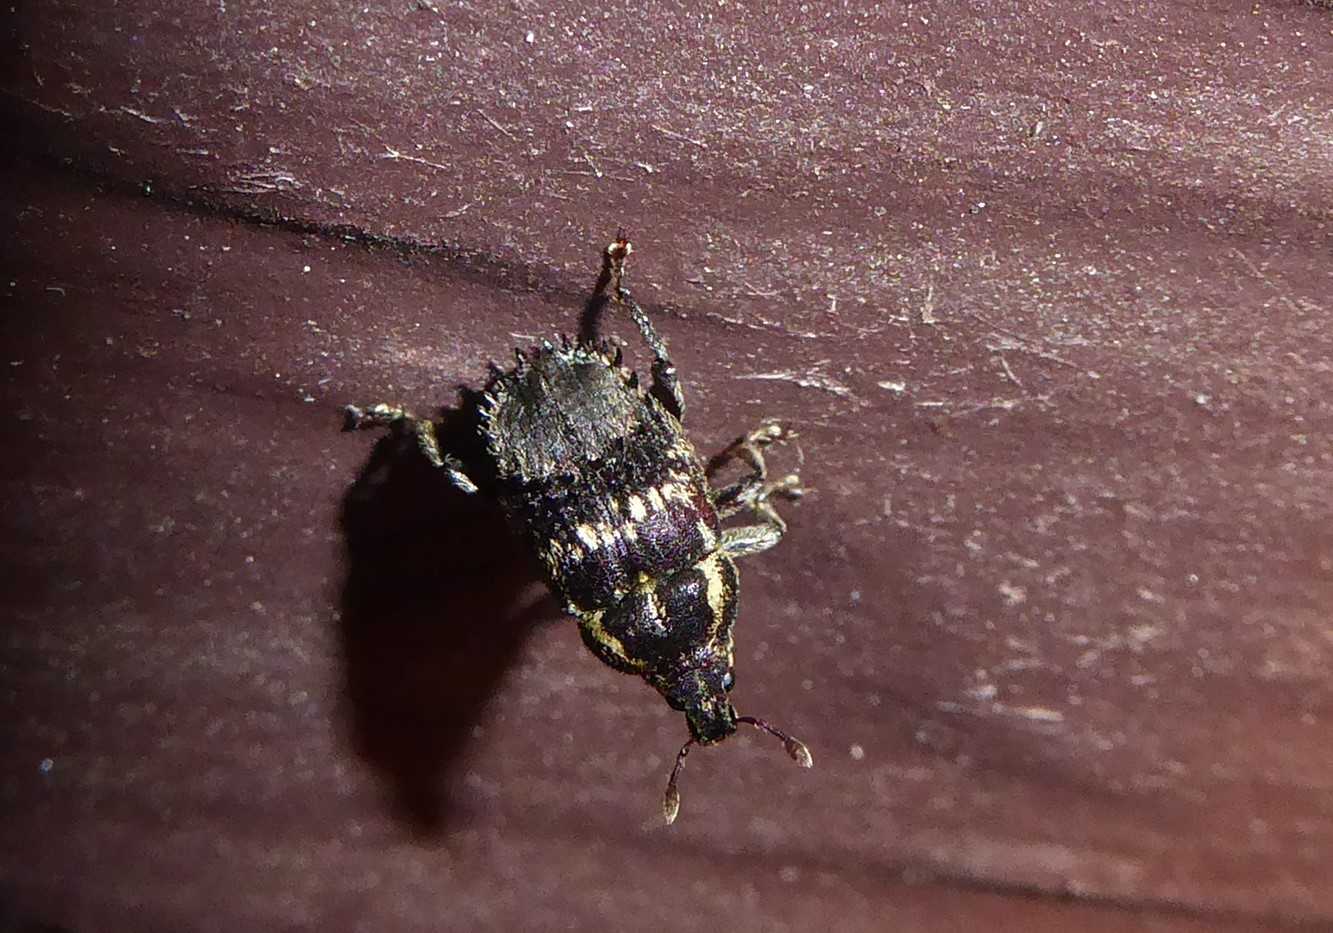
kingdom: Animalia
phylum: Arthropoda
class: Insecta
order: Coleoptera
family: Curculionidae
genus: Psepholax
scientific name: Psepholax coronatus
